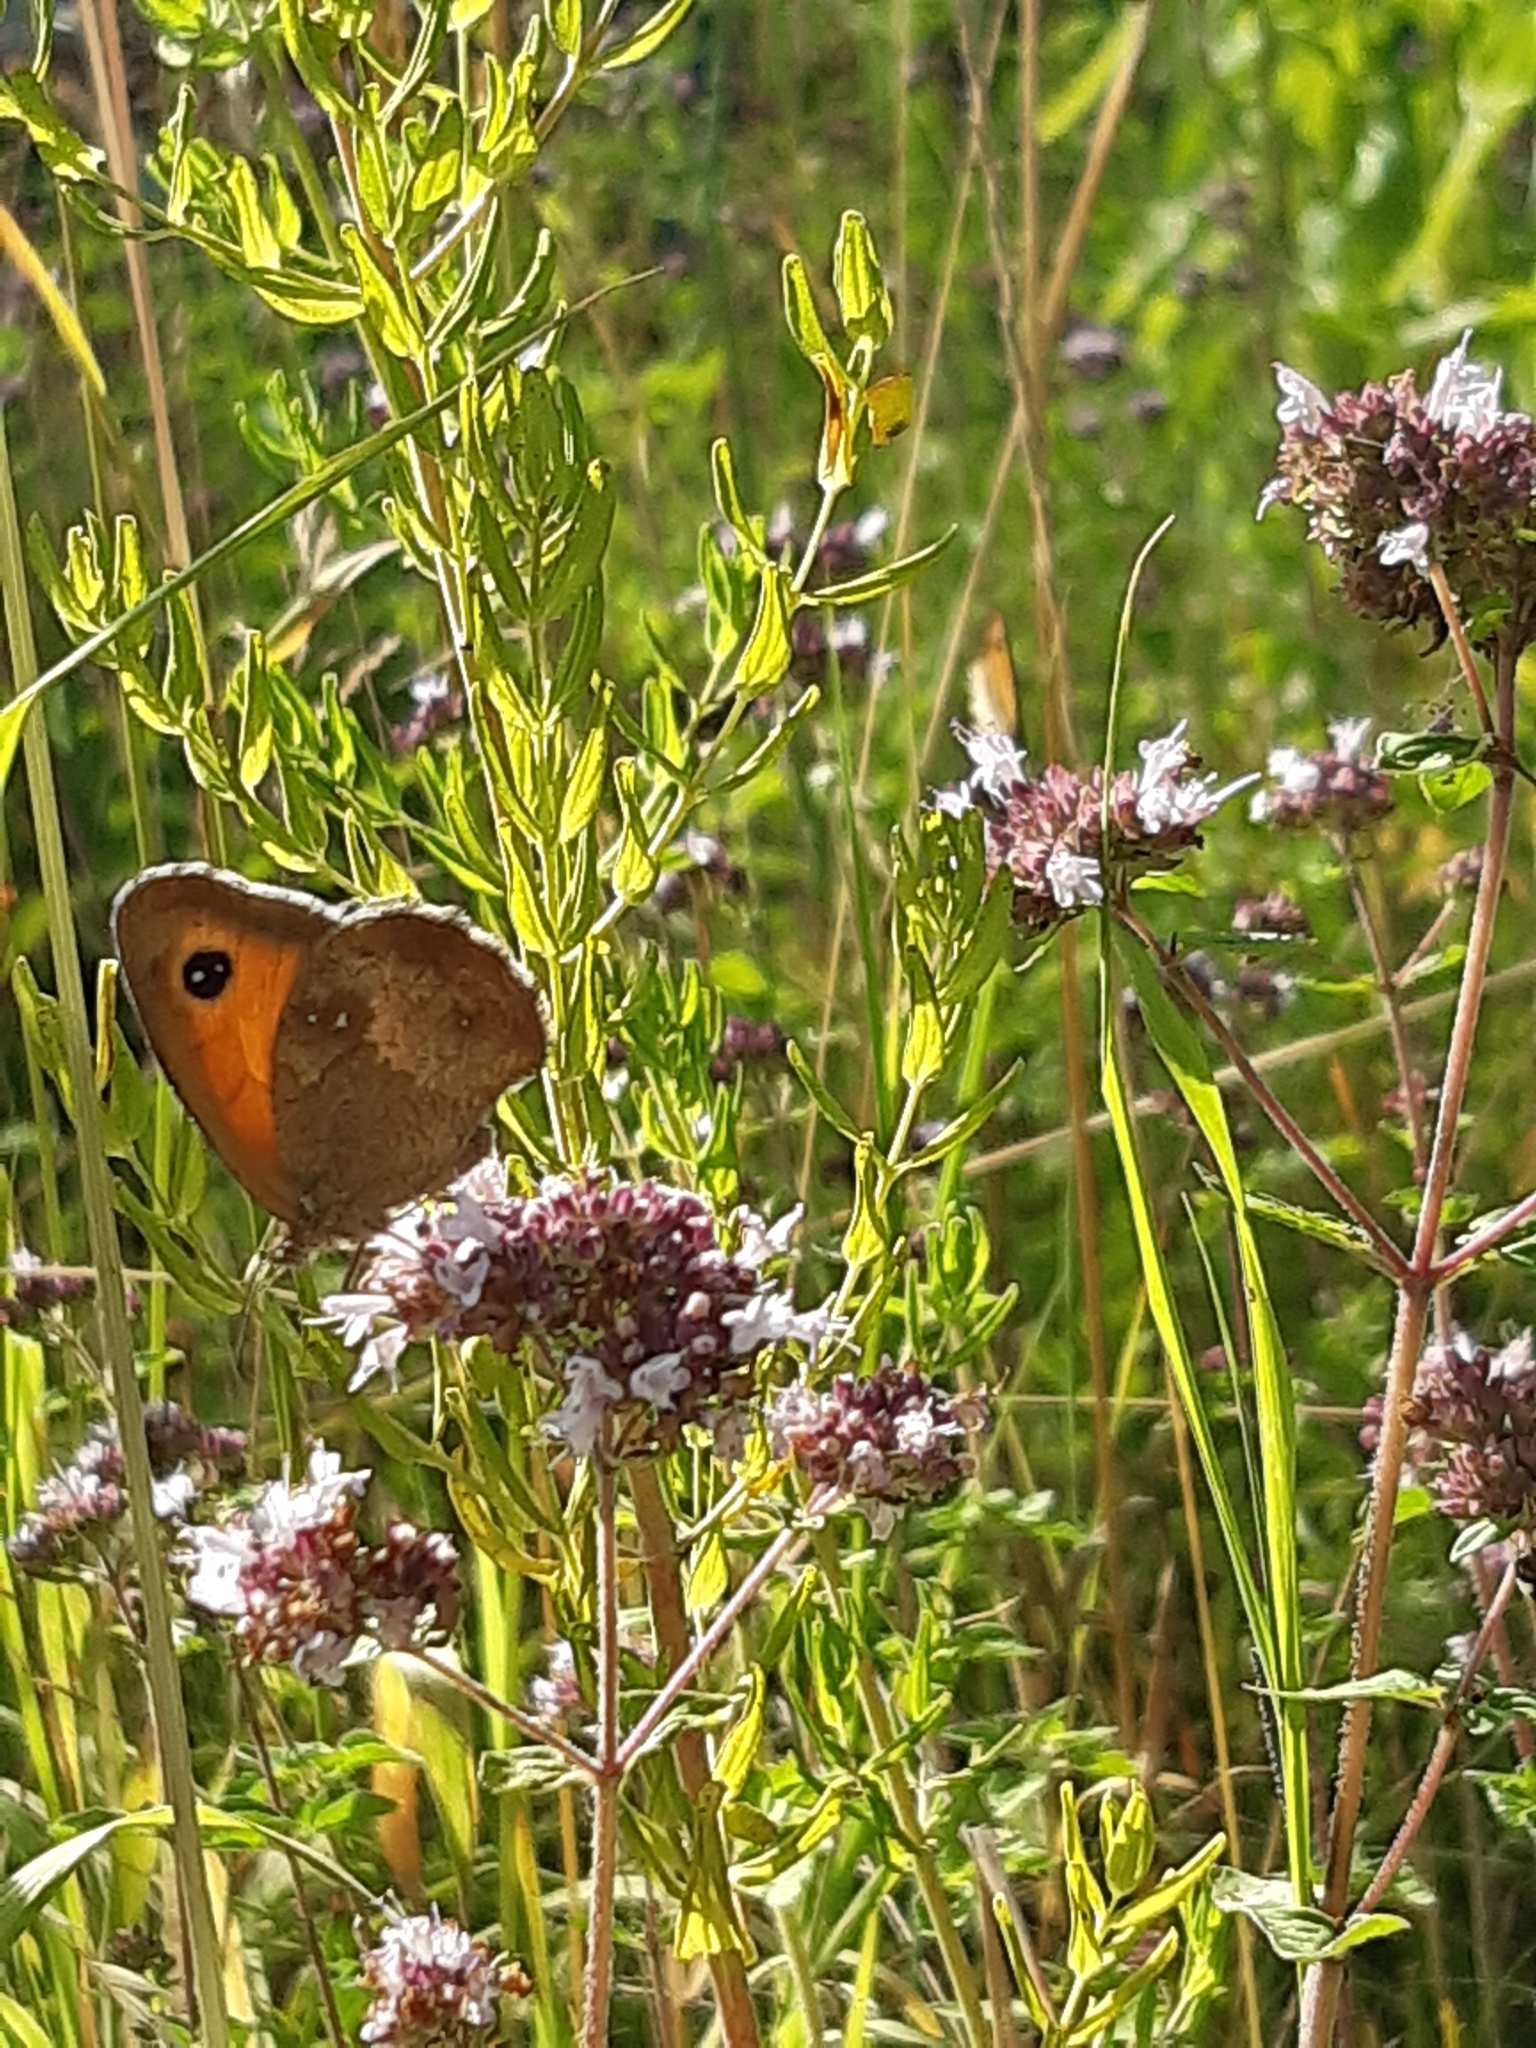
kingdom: Animalia
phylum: Arthropoda
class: Insecta
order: Lepidoptera
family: Nymphalidae
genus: Pyronia
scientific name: Pyronia tithonus
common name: Gatekeeper
